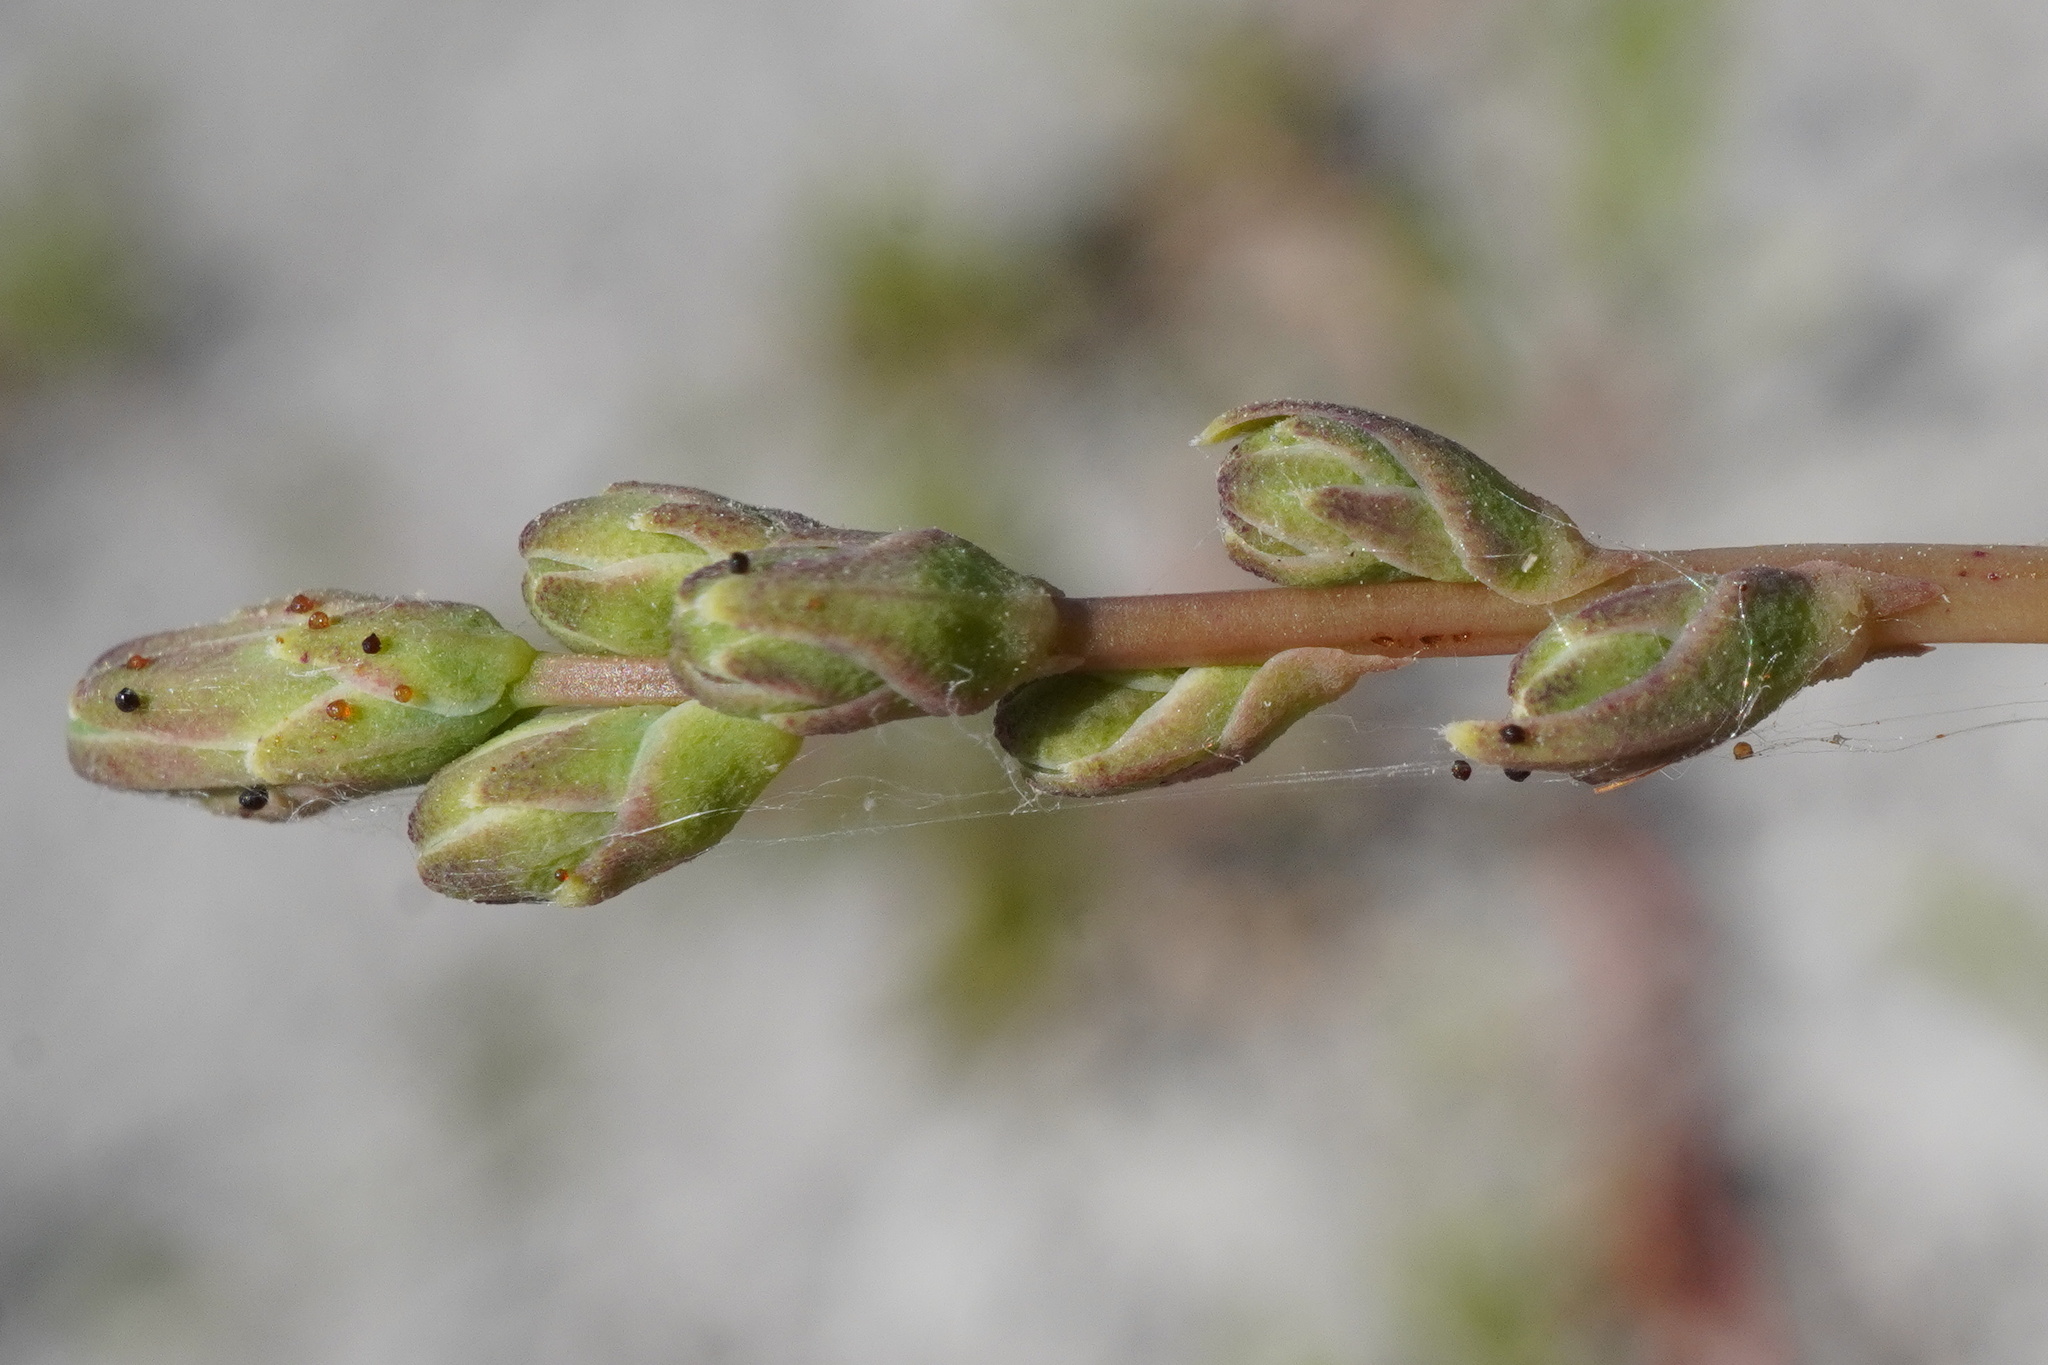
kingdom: Plantae
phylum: Tracheophyta
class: Magnoliopsida
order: Asterales
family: Asteraceae
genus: Lactuca
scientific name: Lactuca saligna
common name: Wild lettuce
